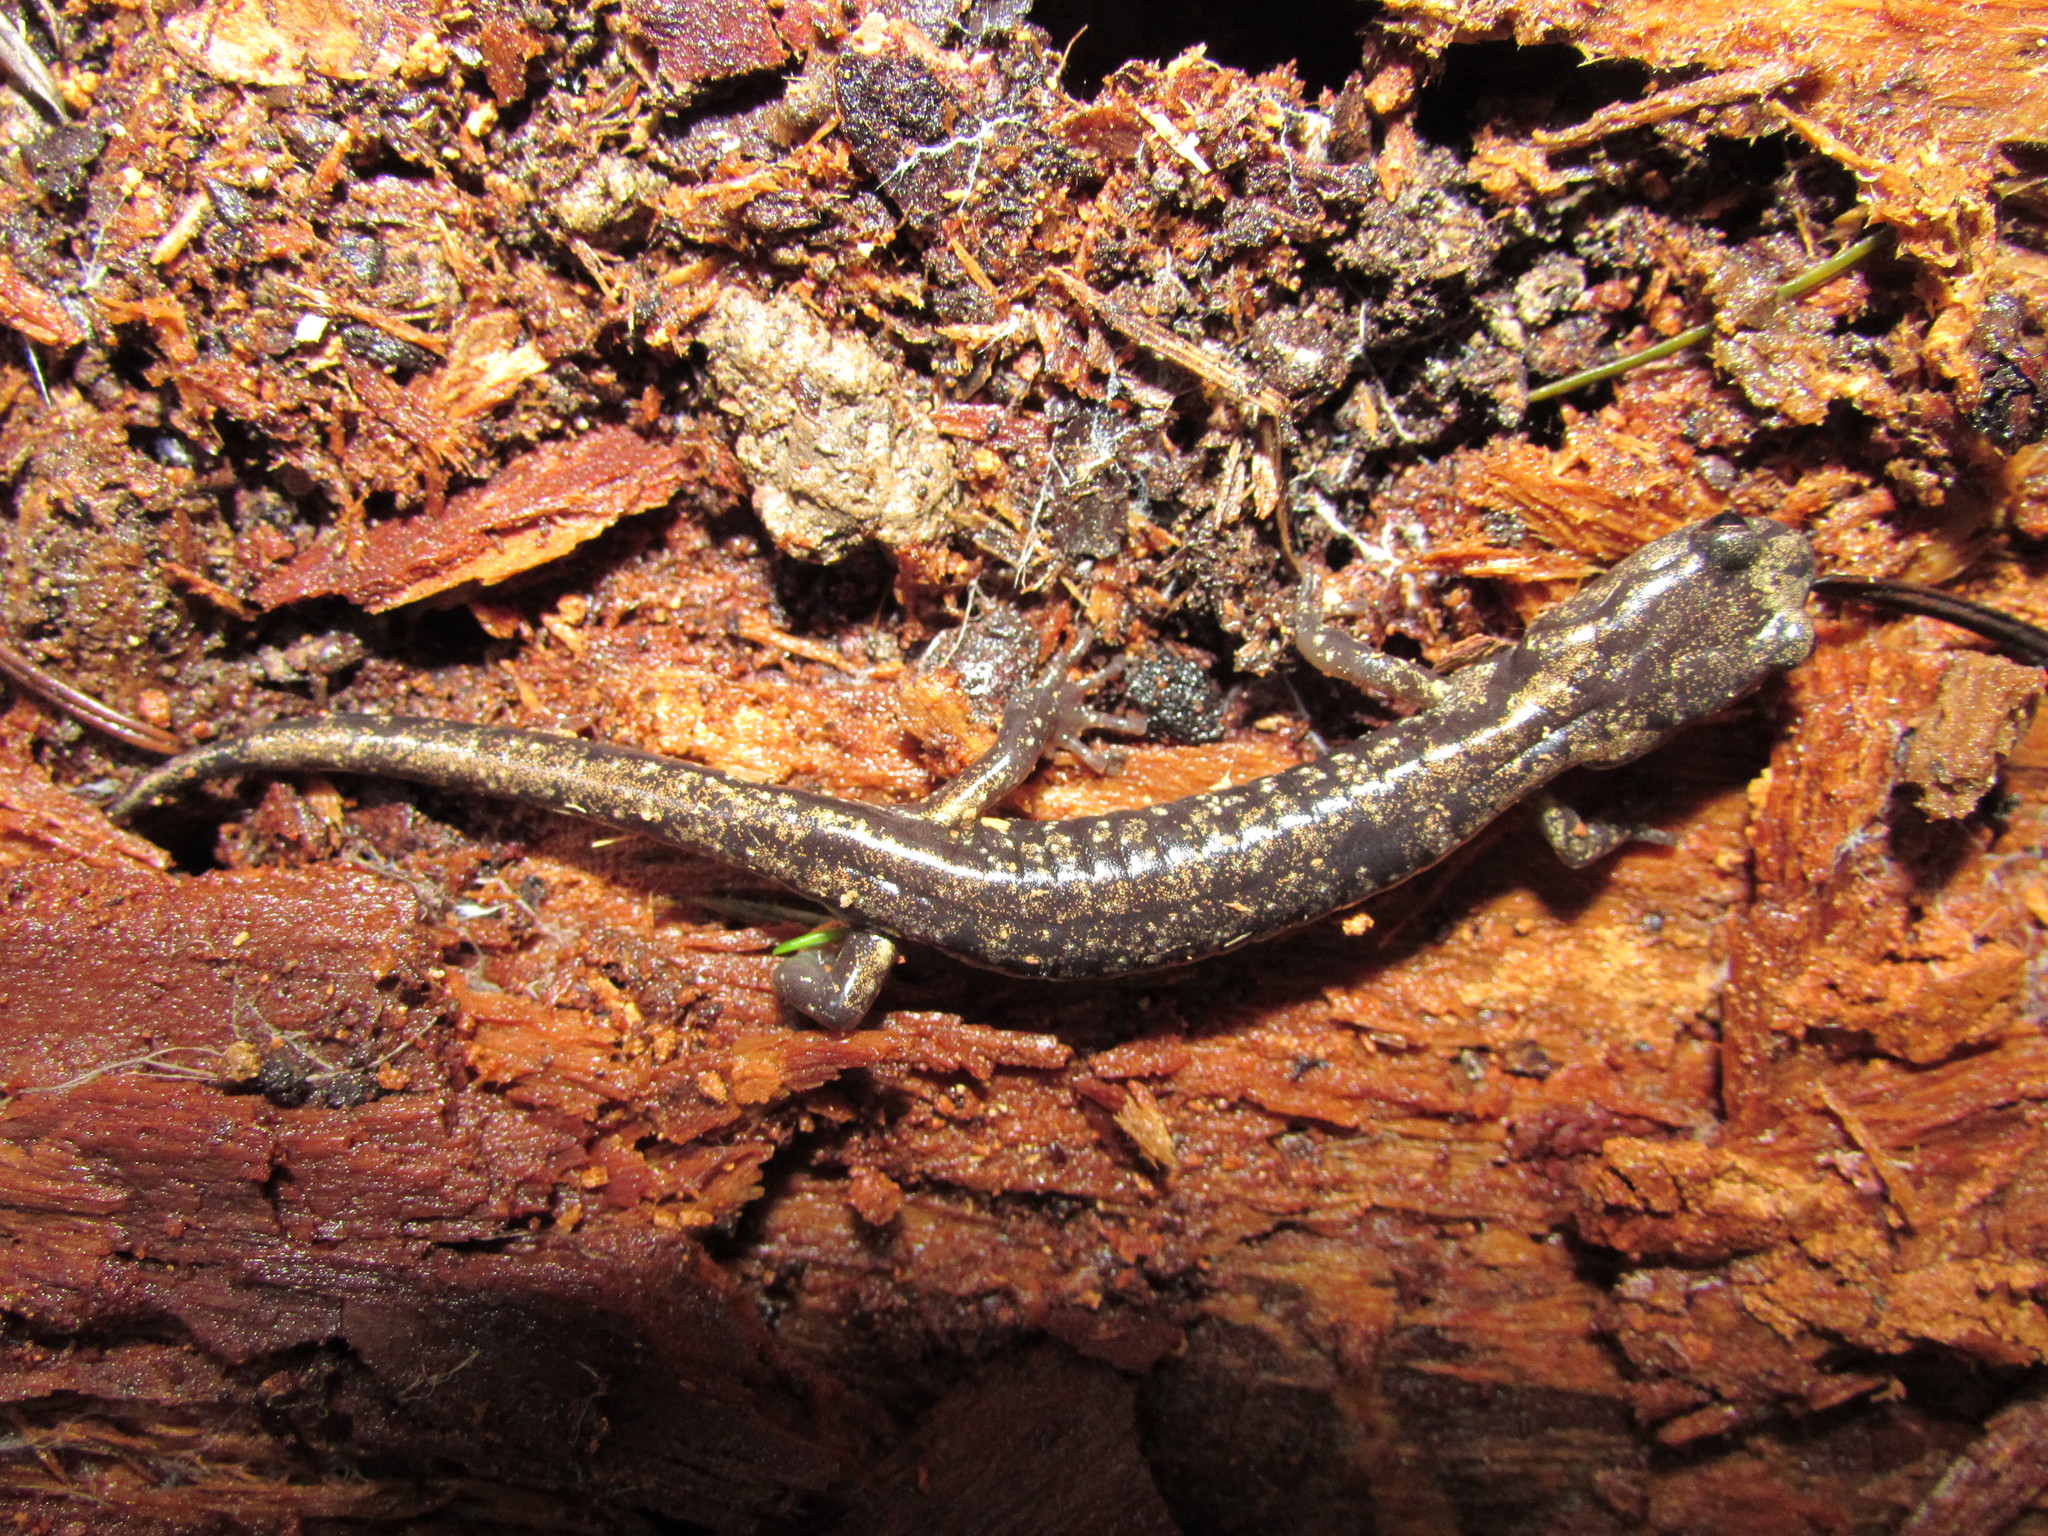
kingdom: Animalia
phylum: Chordata
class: Amphibia
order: Caudata
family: Plethodontidae
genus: Aneides
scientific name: Aneides ferreus
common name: Clouded salamander
